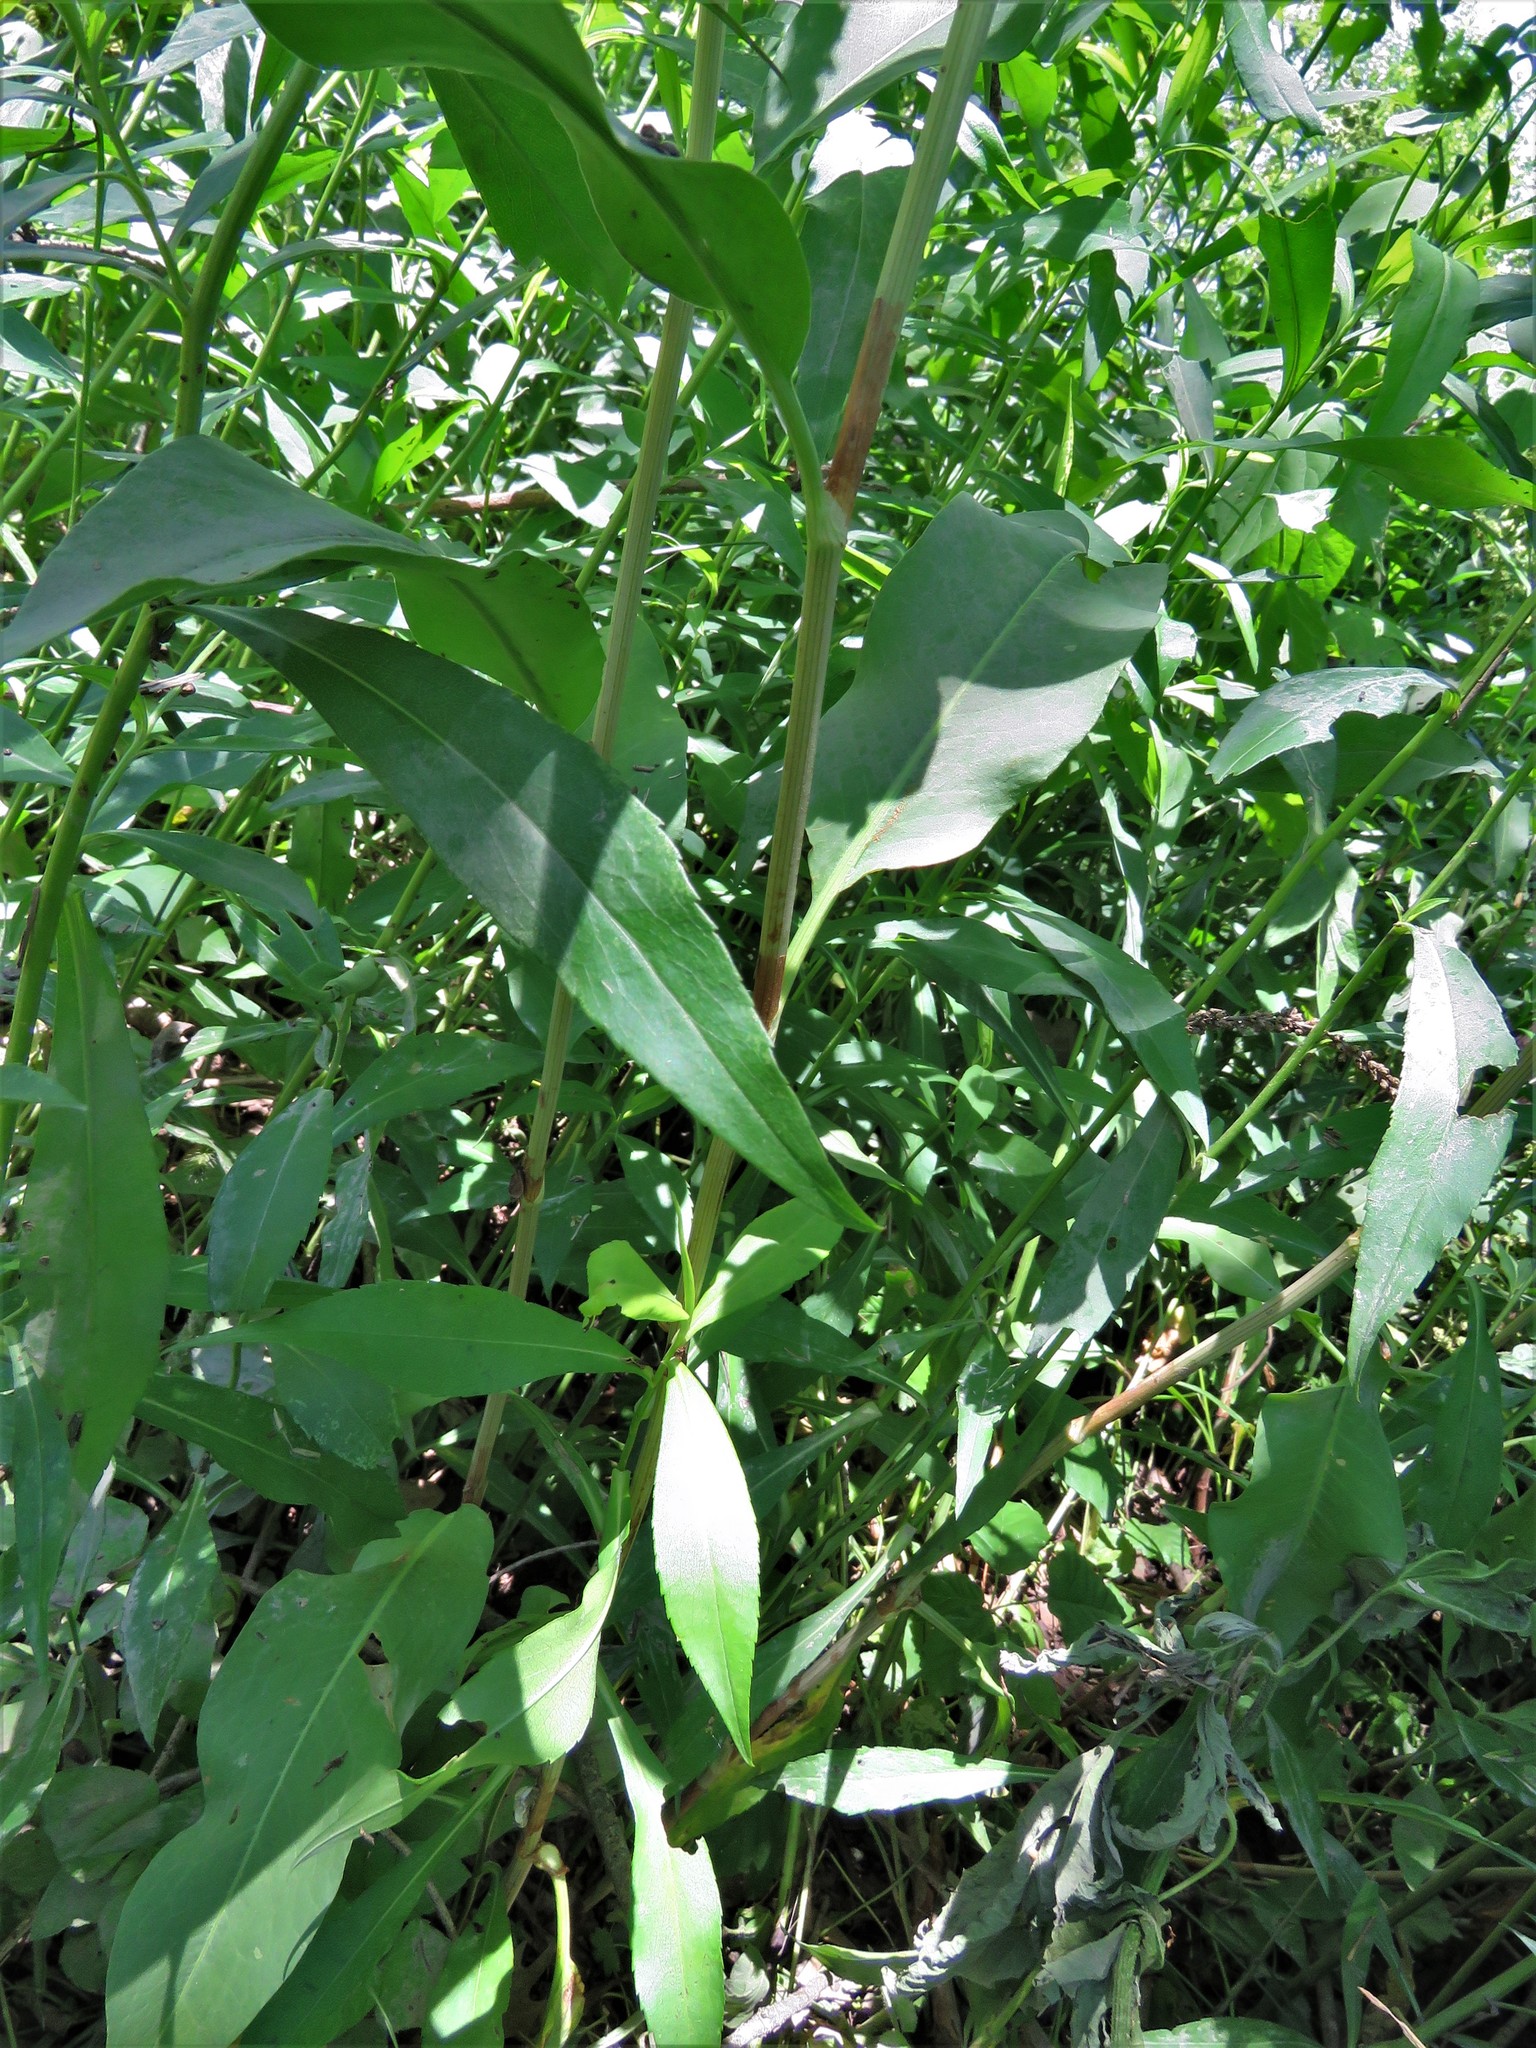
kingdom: Plantae
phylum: Tracheophyta
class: Magnoliopsida
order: Caryophyllales
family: Polygonaceae
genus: Rumex
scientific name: Rumex altissimus
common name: Smooth dock
